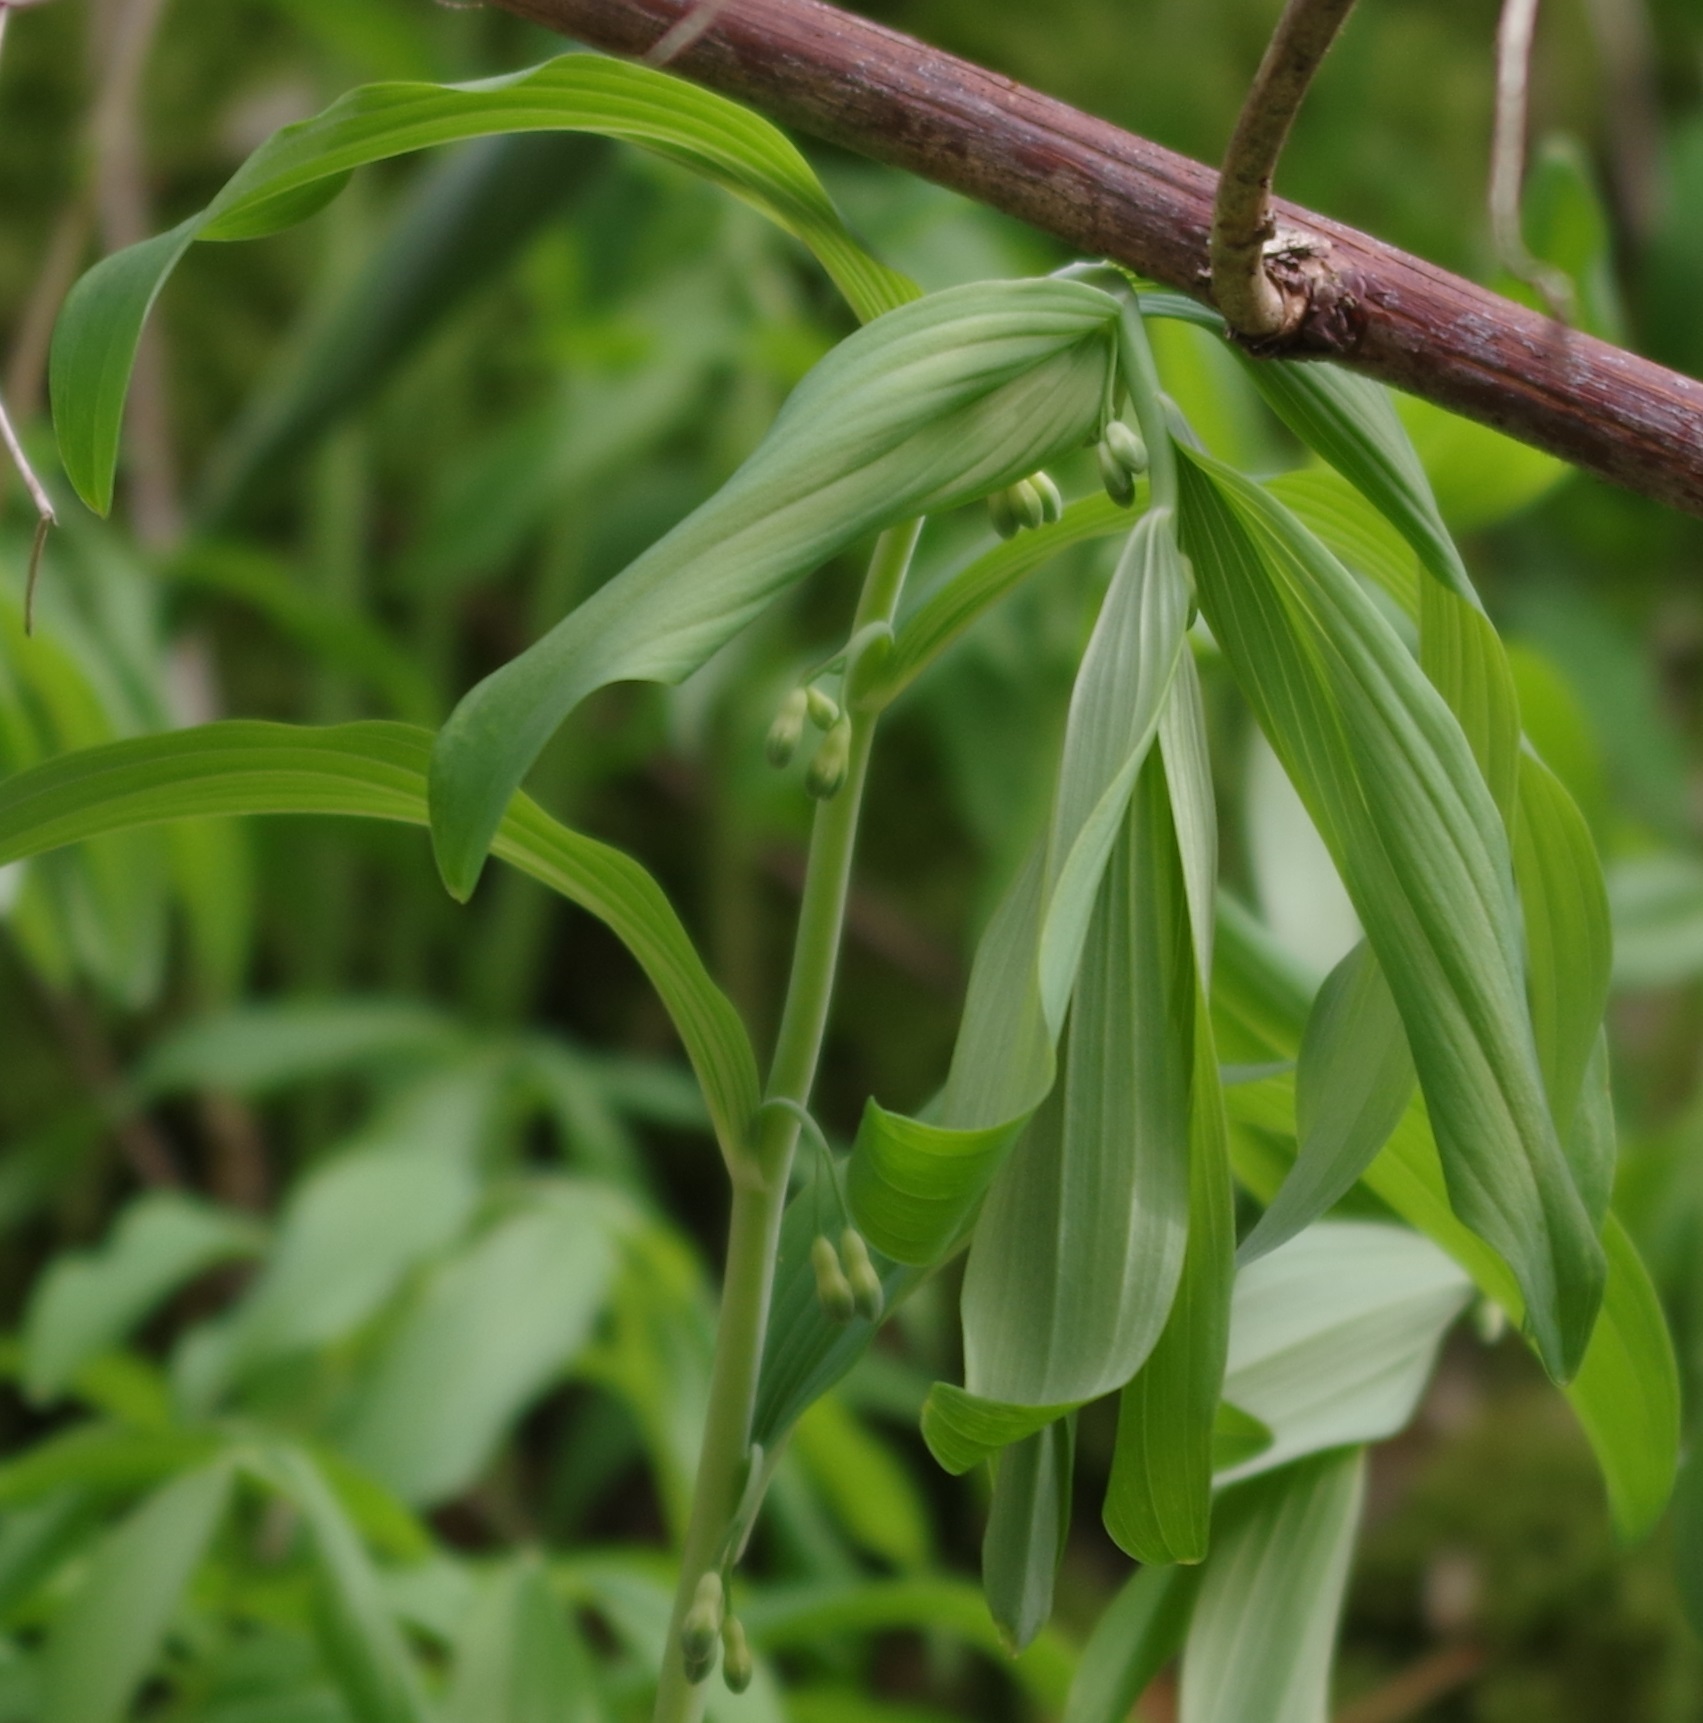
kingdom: Plantae
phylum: Tracheophyta
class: Liliopsida
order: Asparagales
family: Asparagaceae
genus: Polygonatum
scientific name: Polygonatum multiflorum
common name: Solomon's-seal
